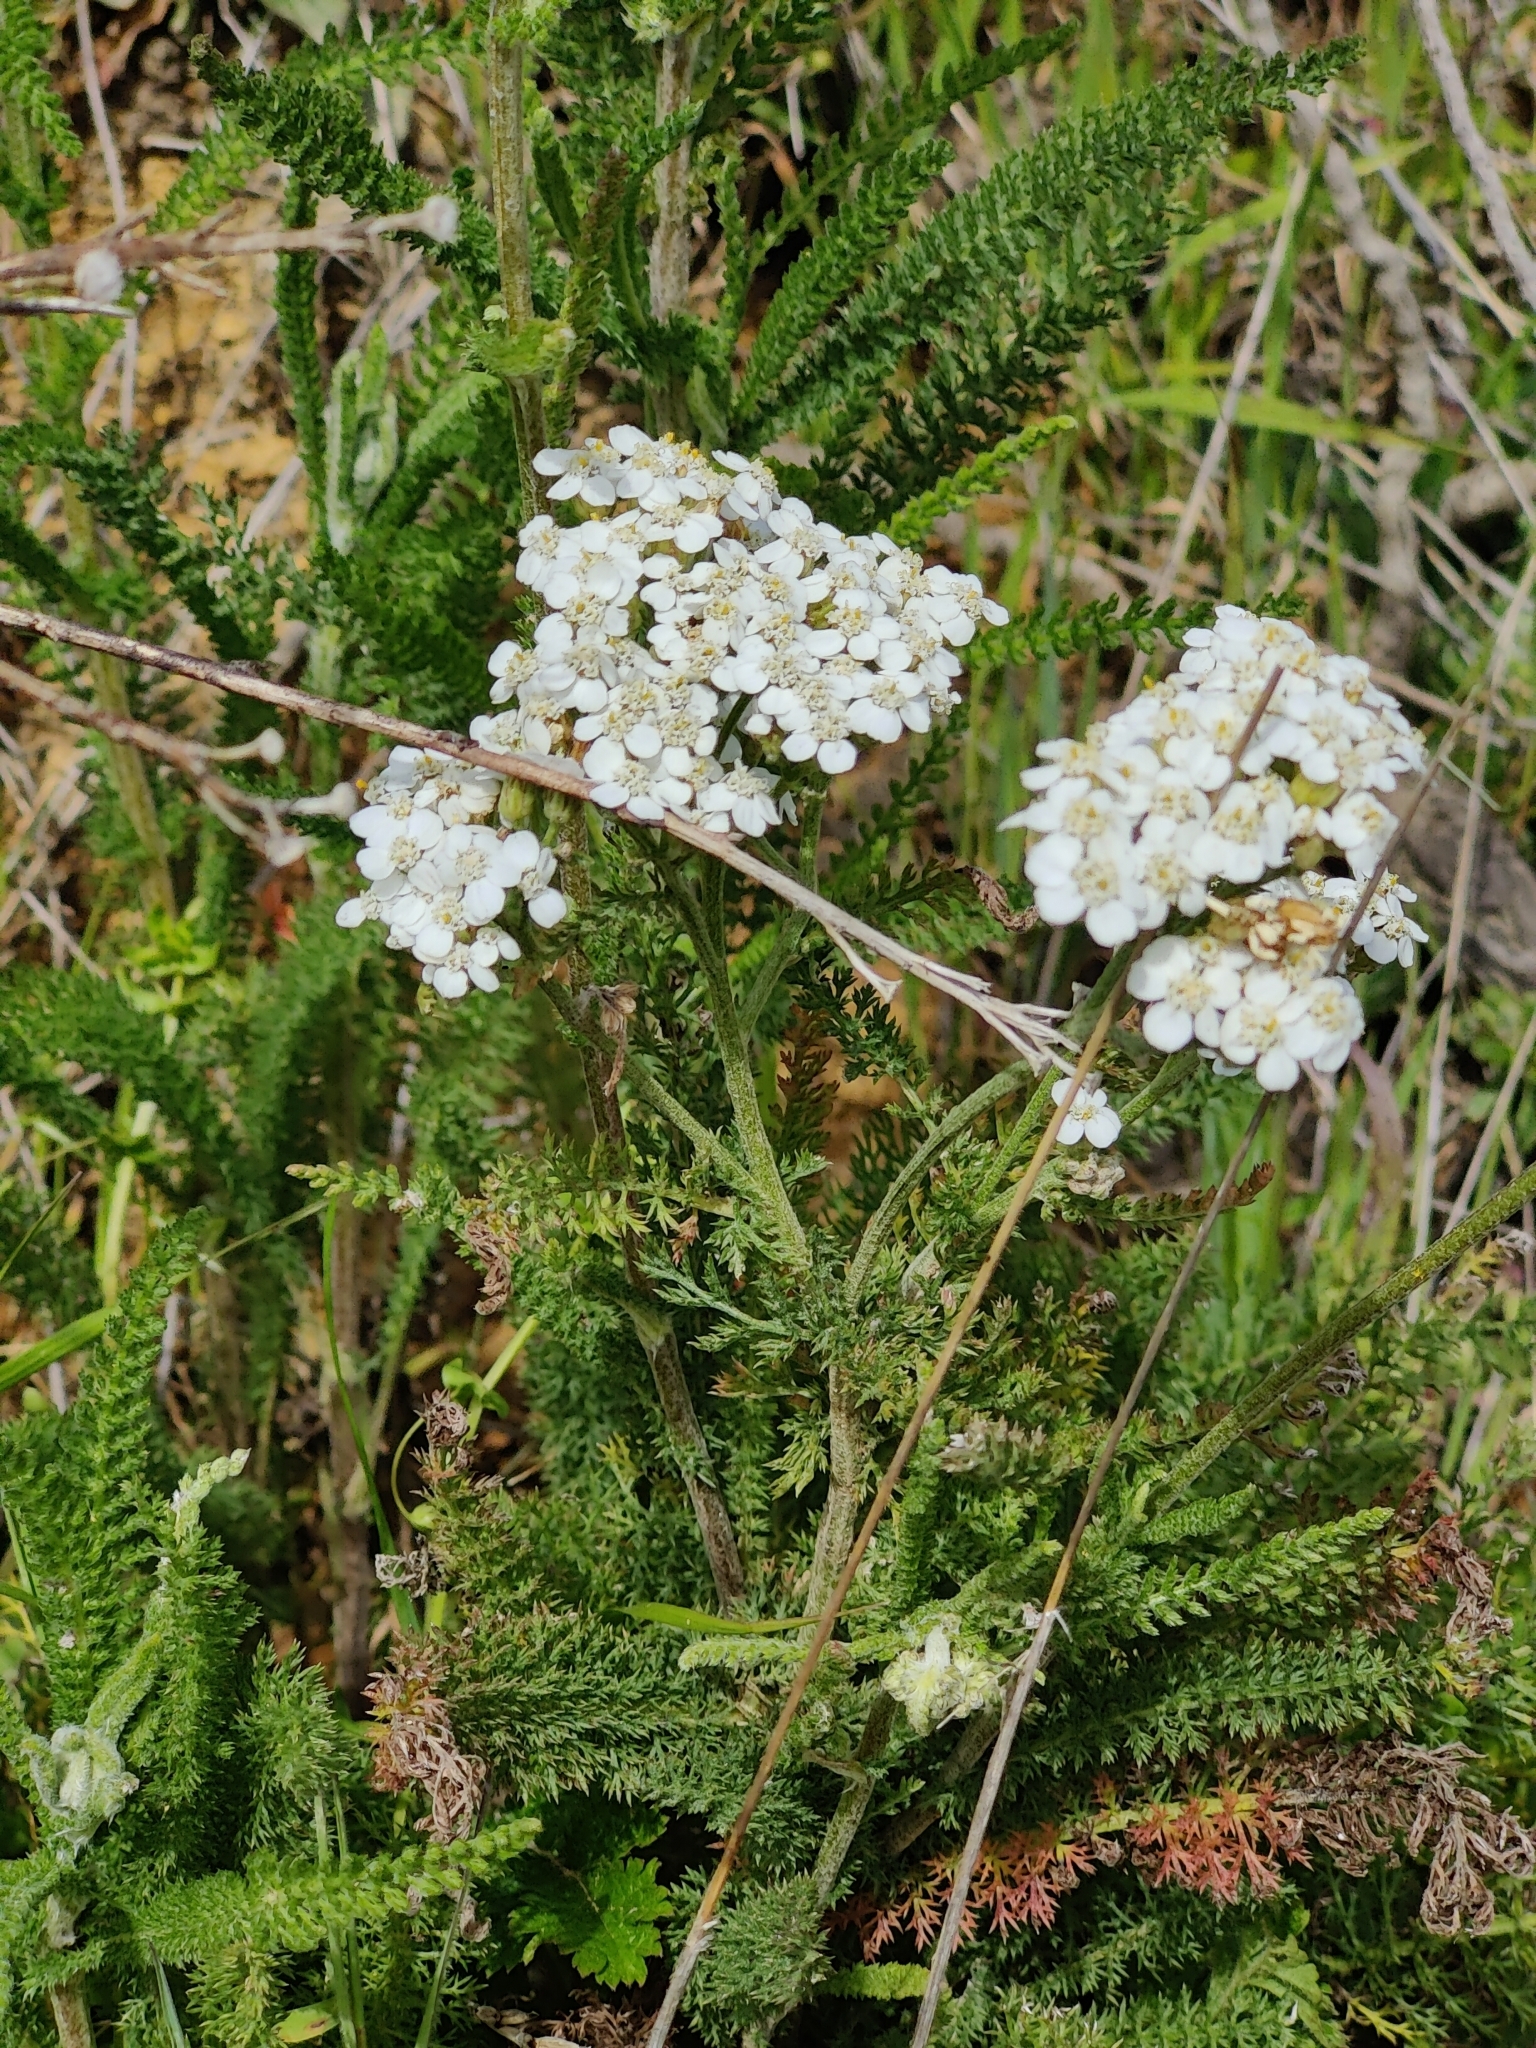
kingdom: Plantae
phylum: Tracheophyta
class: Magnoliopsida
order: Asterales
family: Asteraceae
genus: Achillea
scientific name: Achillea millefolium
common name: Yarrow
